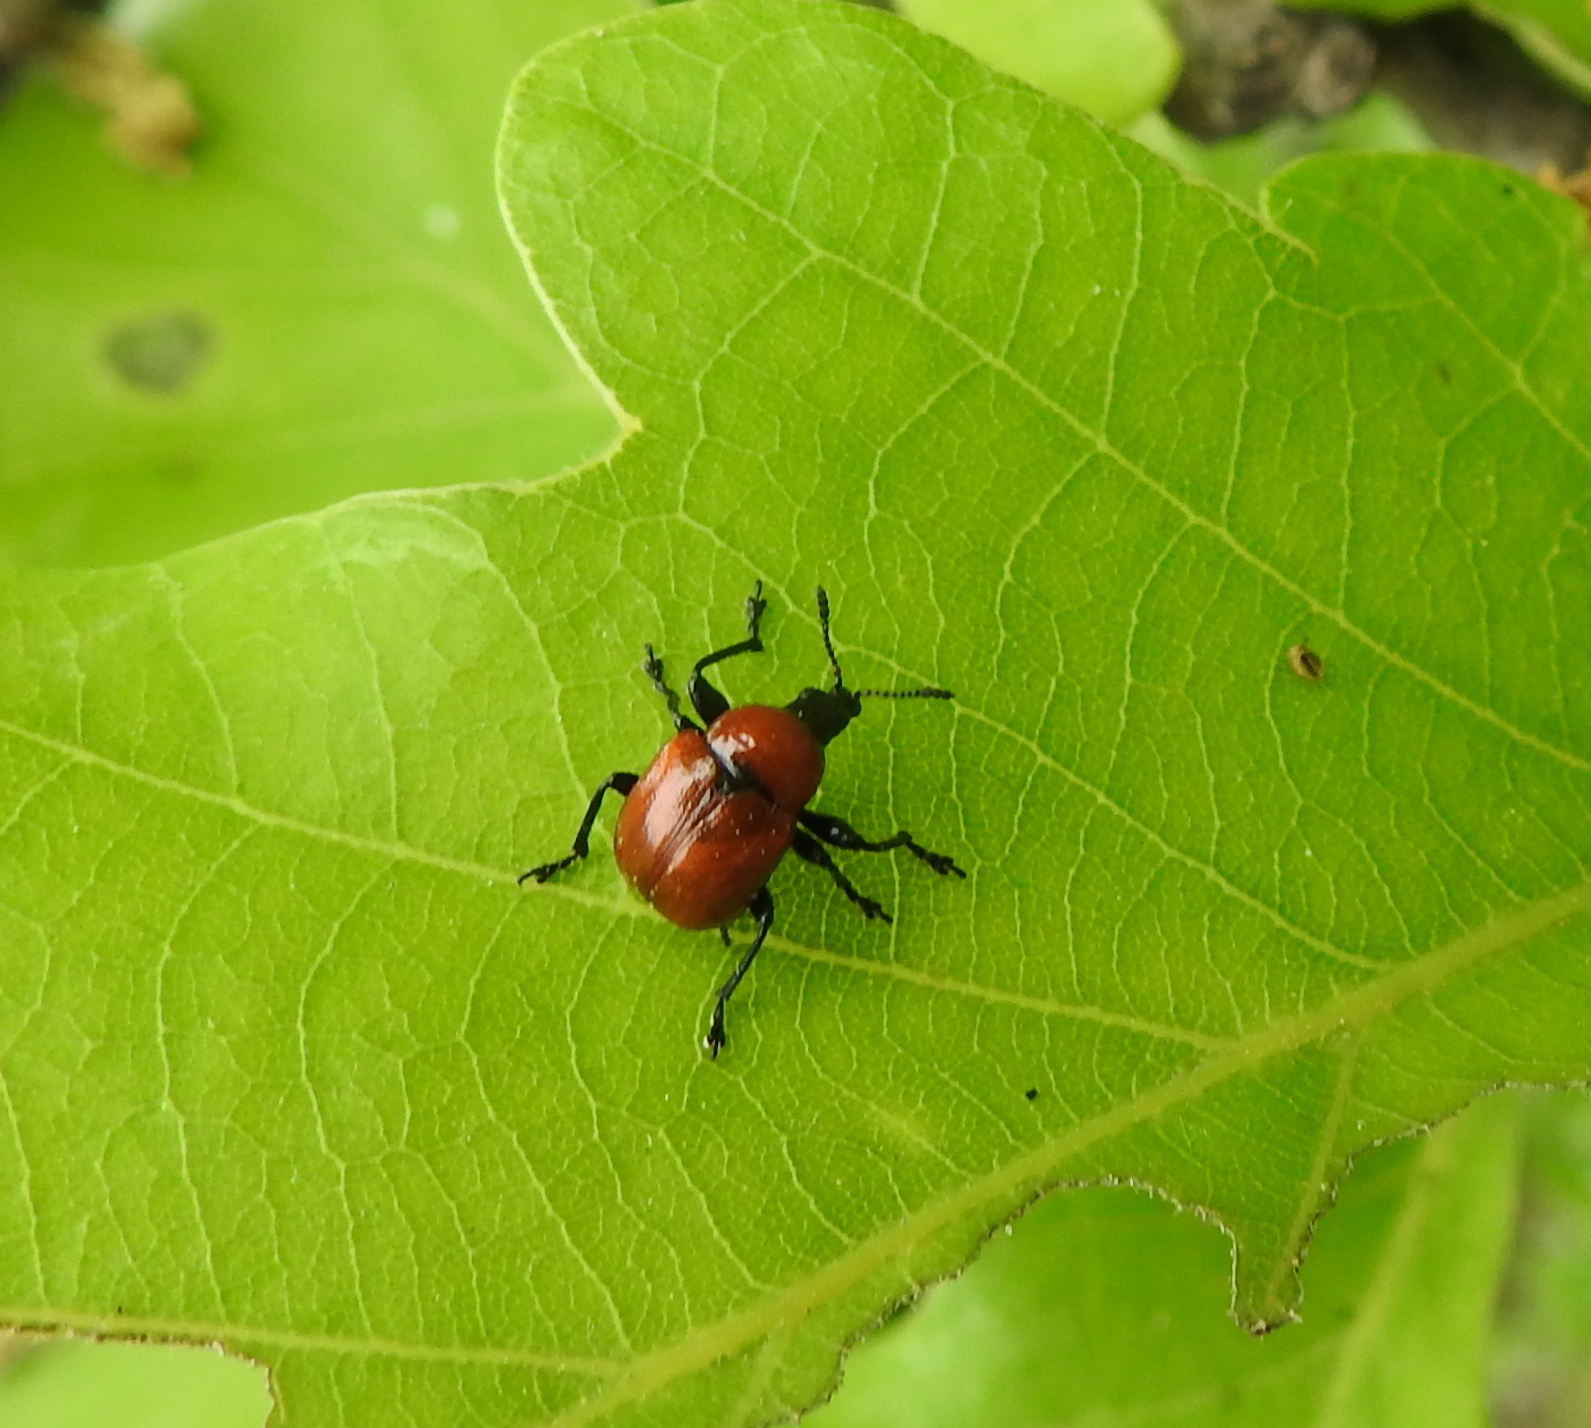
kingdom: Animalia
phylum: Arthropoda
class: Insecta
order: Coleoptera
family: Attelabidae
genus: Attelabus
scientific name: Attelabus nitens
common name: Oak leaf-roller
